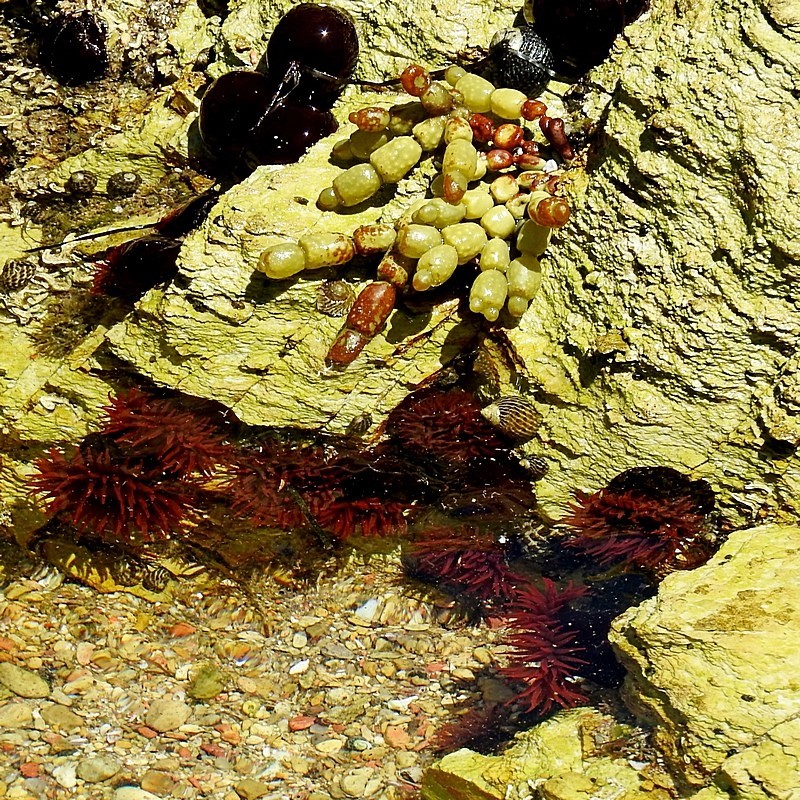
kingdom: Animalia
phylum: Cnidaria
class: Anthozoa
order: Actiniaria
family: Actiniidae
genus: Actinia
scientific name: Actinia tenebrosa
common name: Waratah anemone
